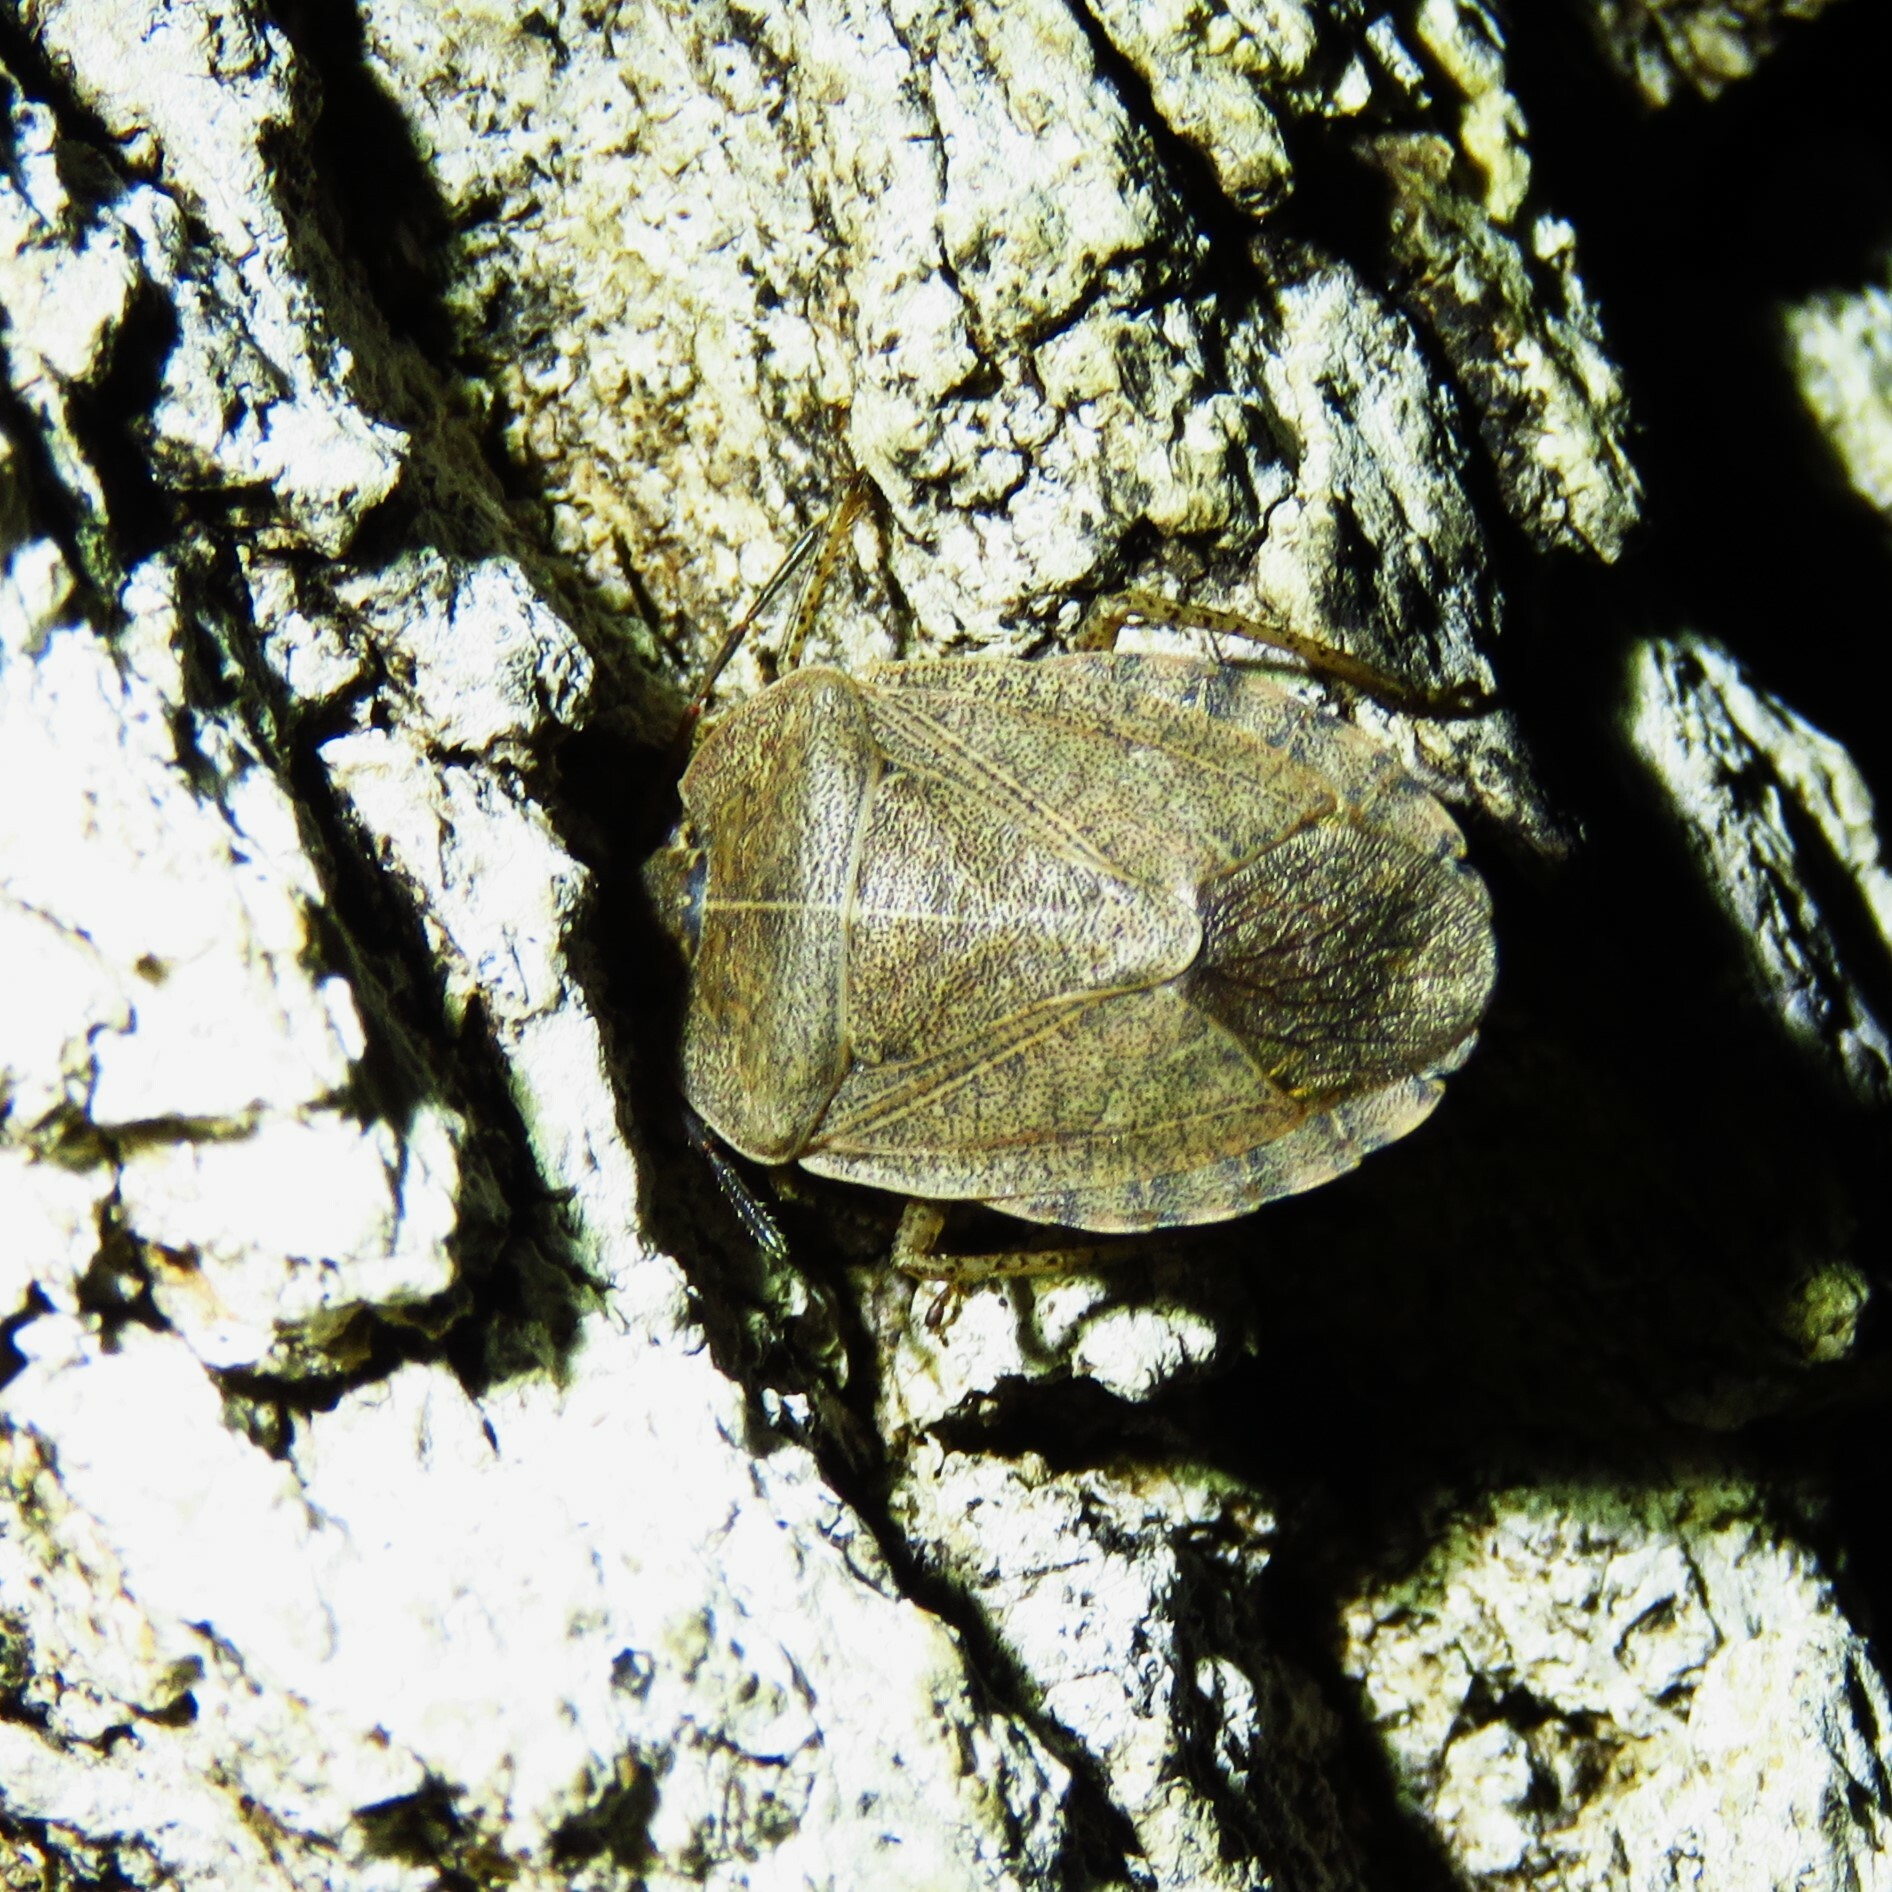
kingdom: Animalia
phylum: Arthropoda
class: Insecta
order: Hemiptera
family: Pentatomidae
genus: Menecles
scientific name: Menecles insertus
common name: Elf shoe stink bug
